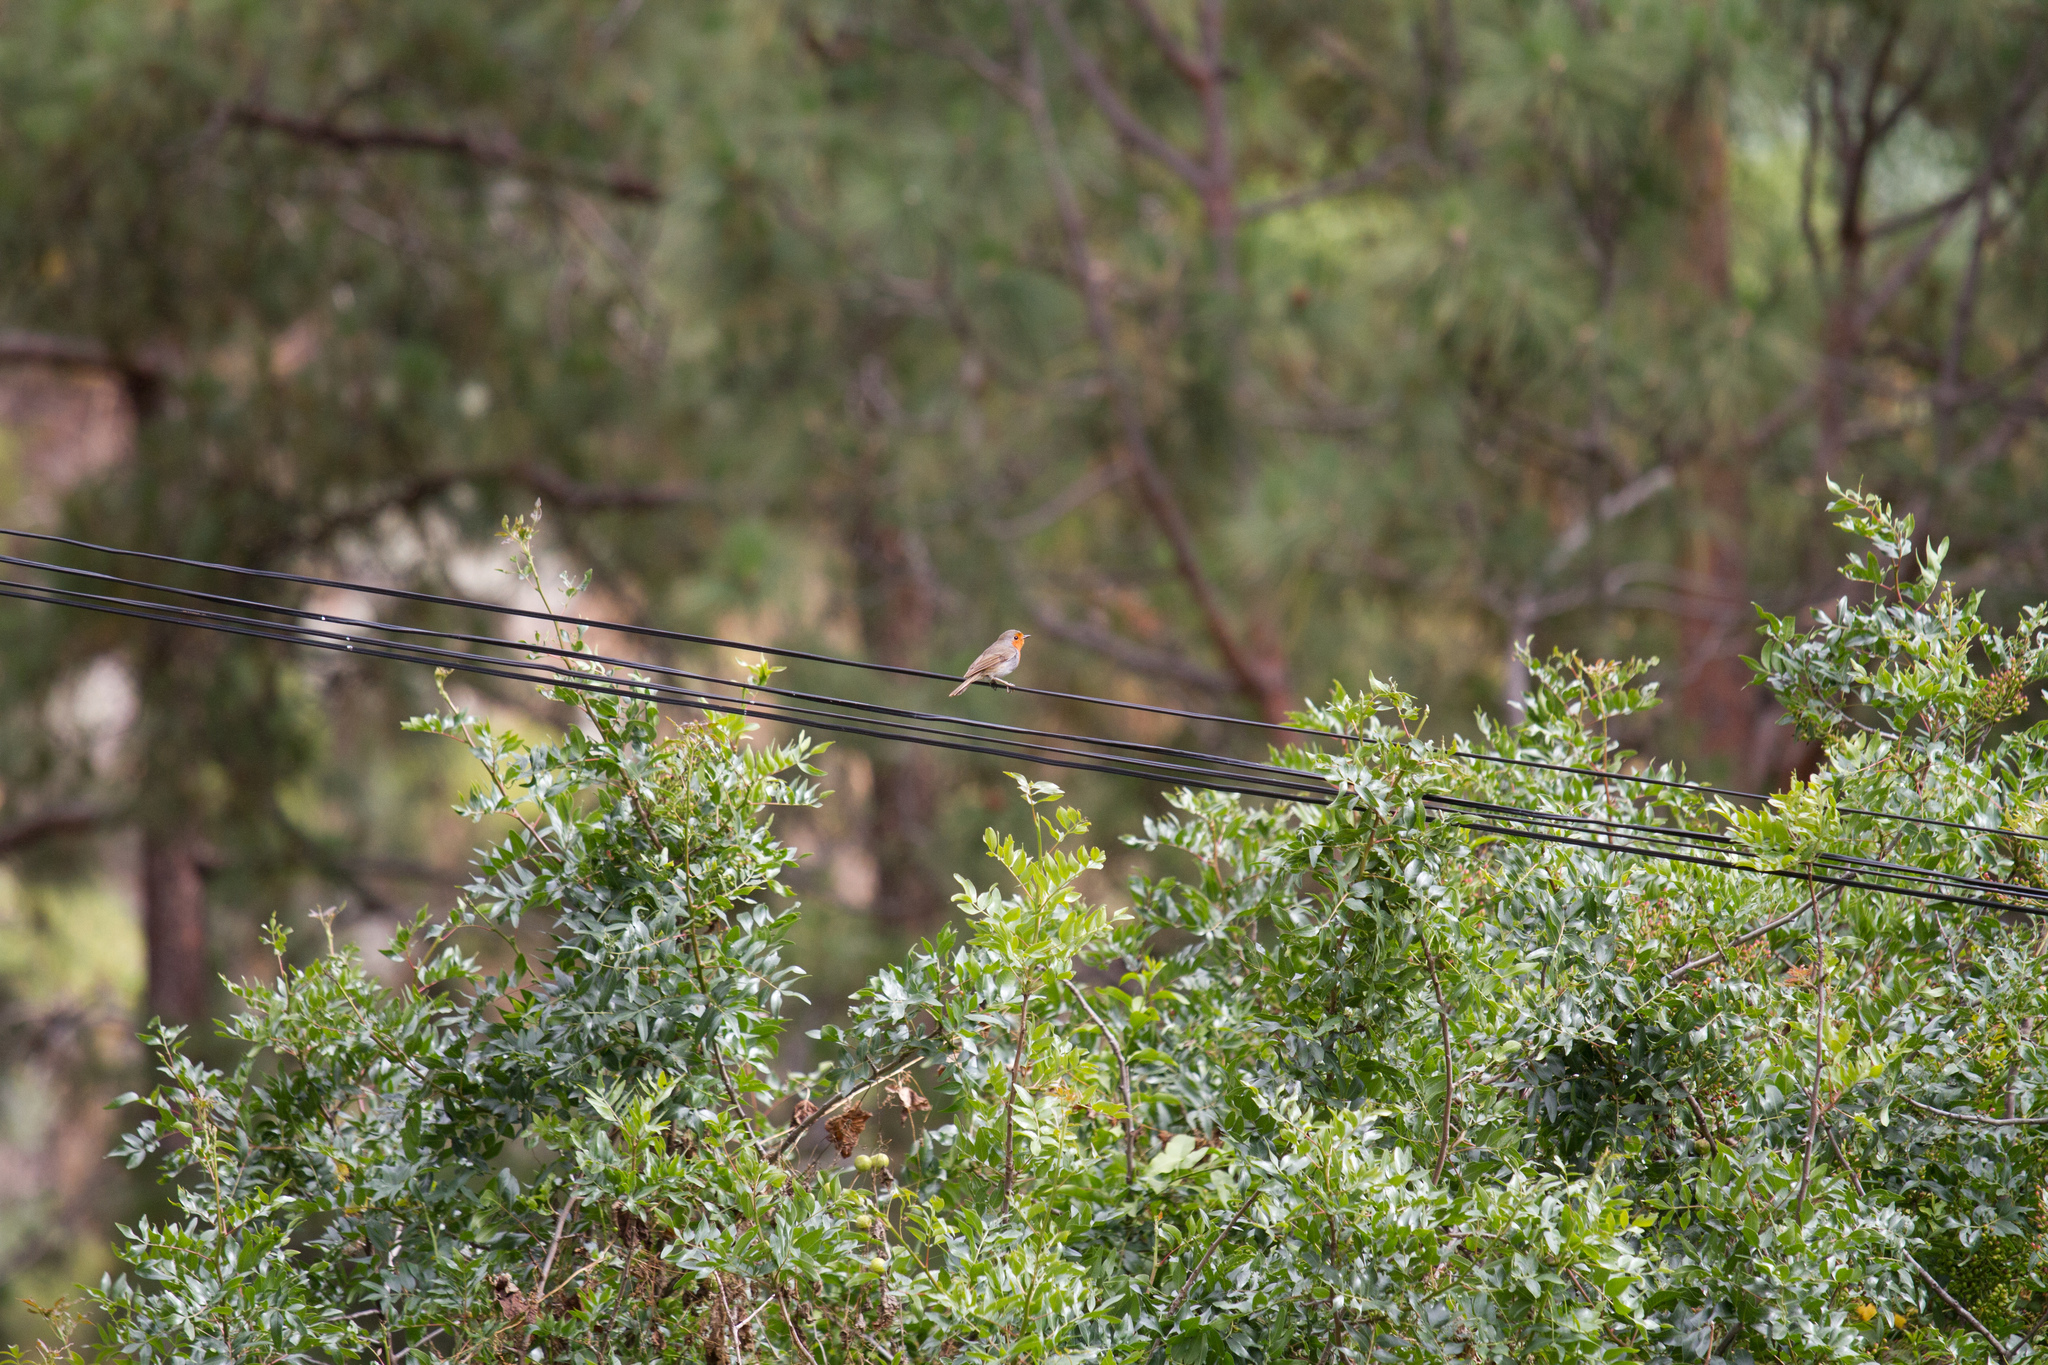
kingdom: Animalia
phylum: Chordata
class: Aves
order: Passeriformes
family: Muscicapidae
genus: Erithacus
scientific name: Erithacus rubecula
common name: European robin
